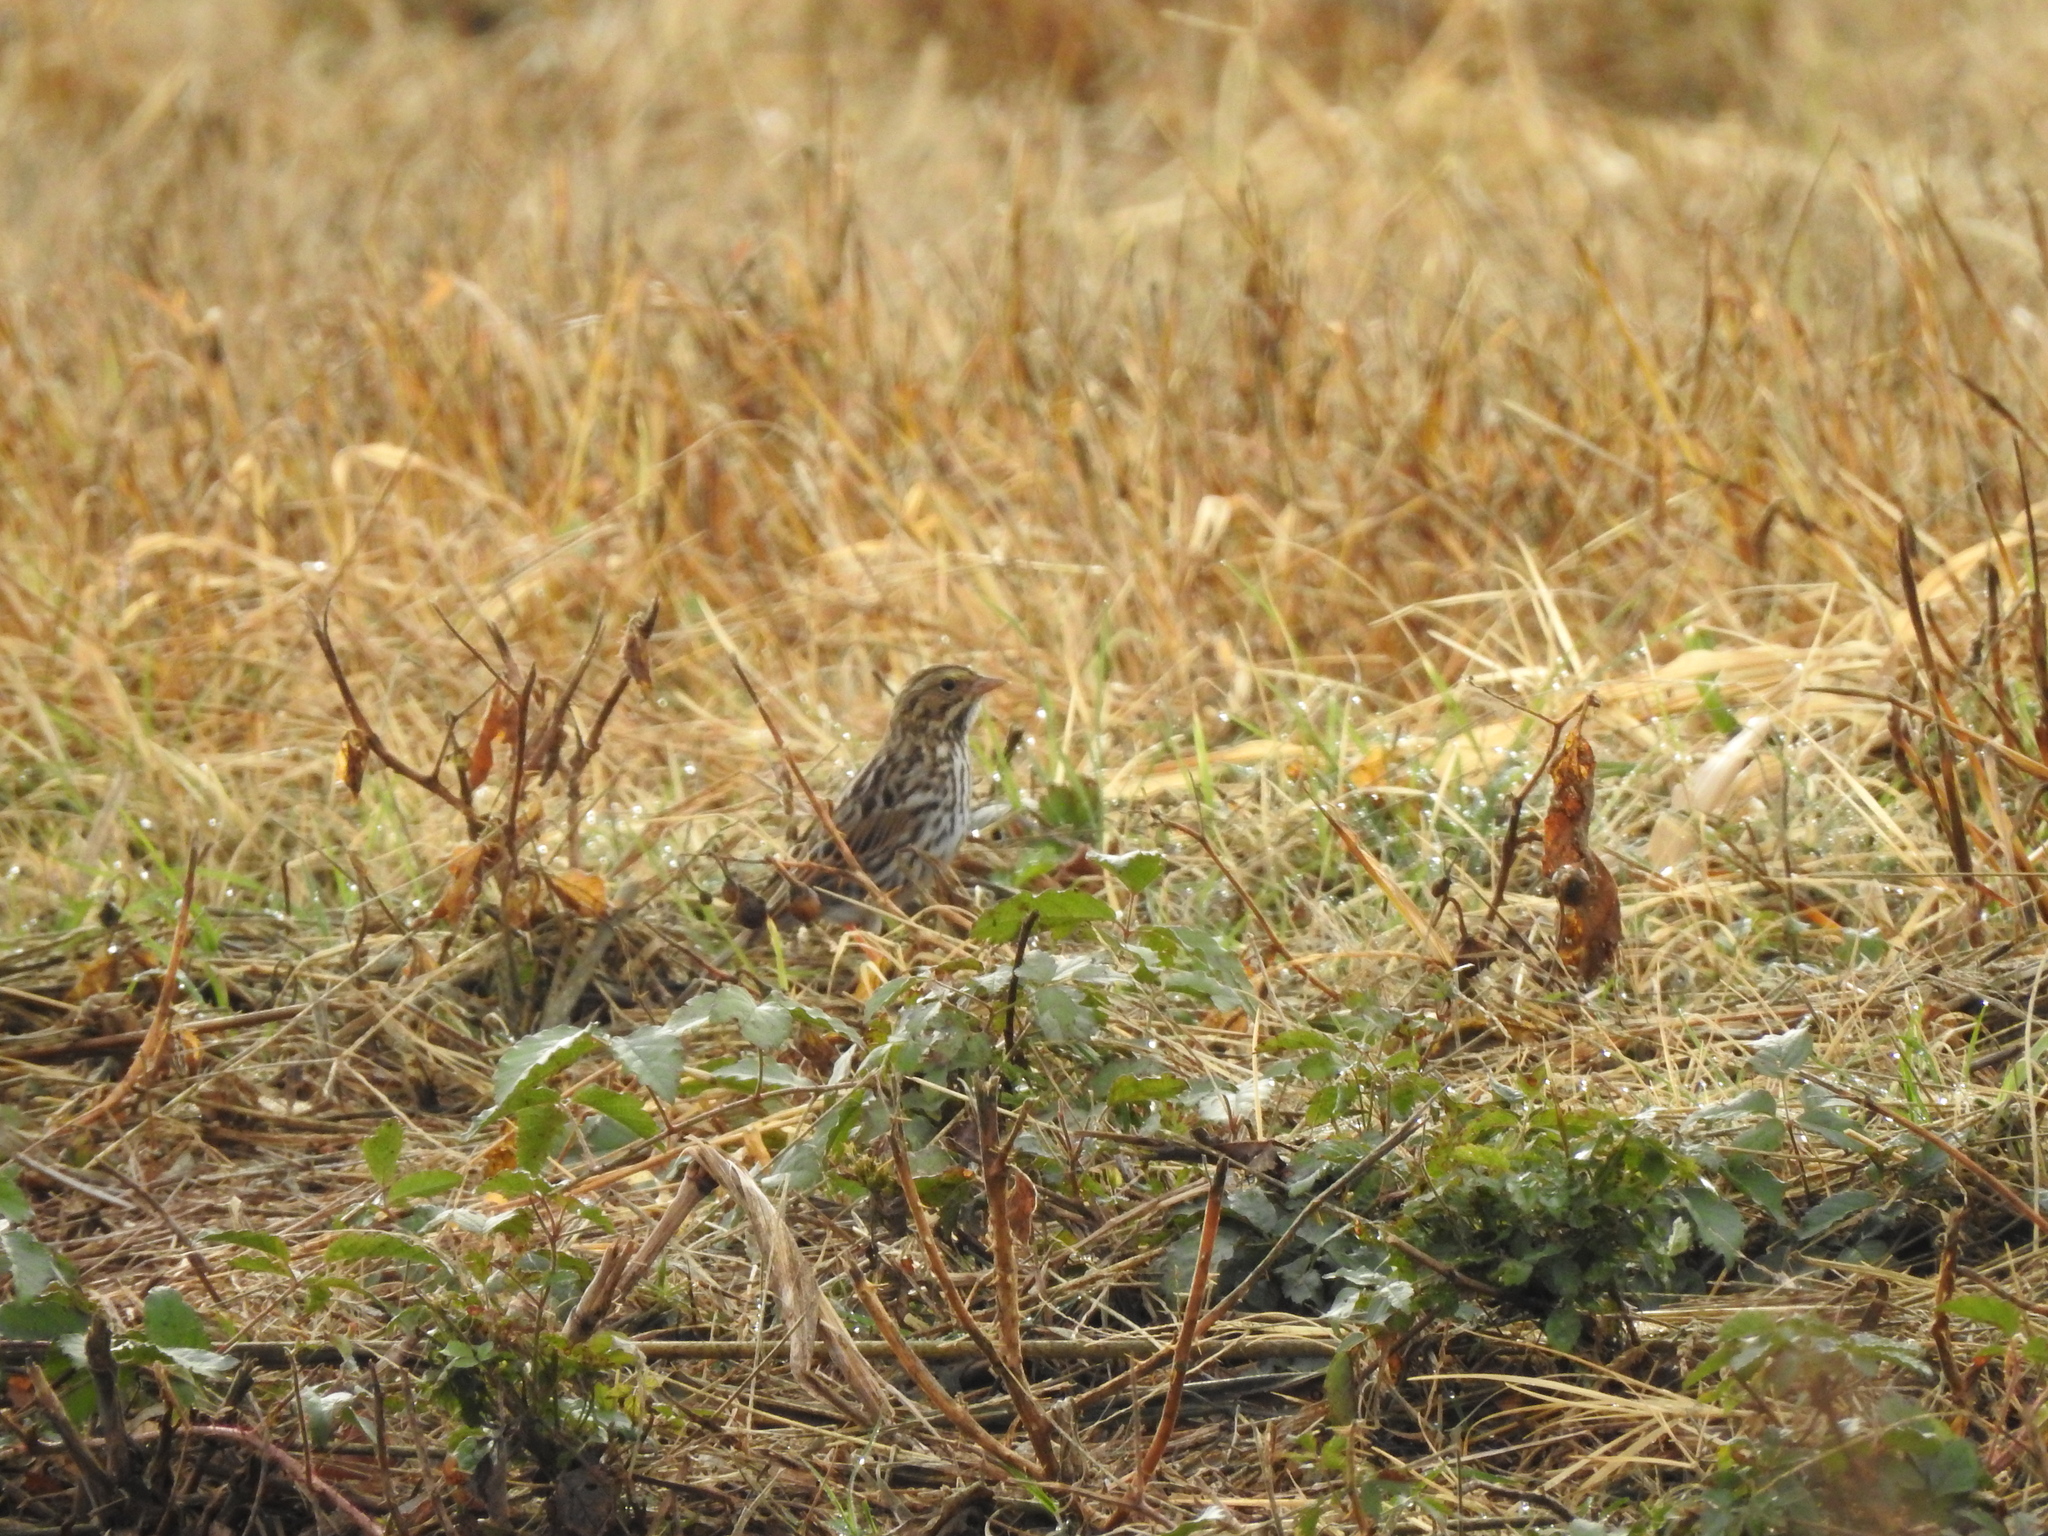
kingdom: Animalia
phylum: Chordata
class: Aves
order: Passeriformes
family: Passerellidae
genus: Passerculus
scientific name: Passerculus sandwichensis
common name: Savannah sparrow
